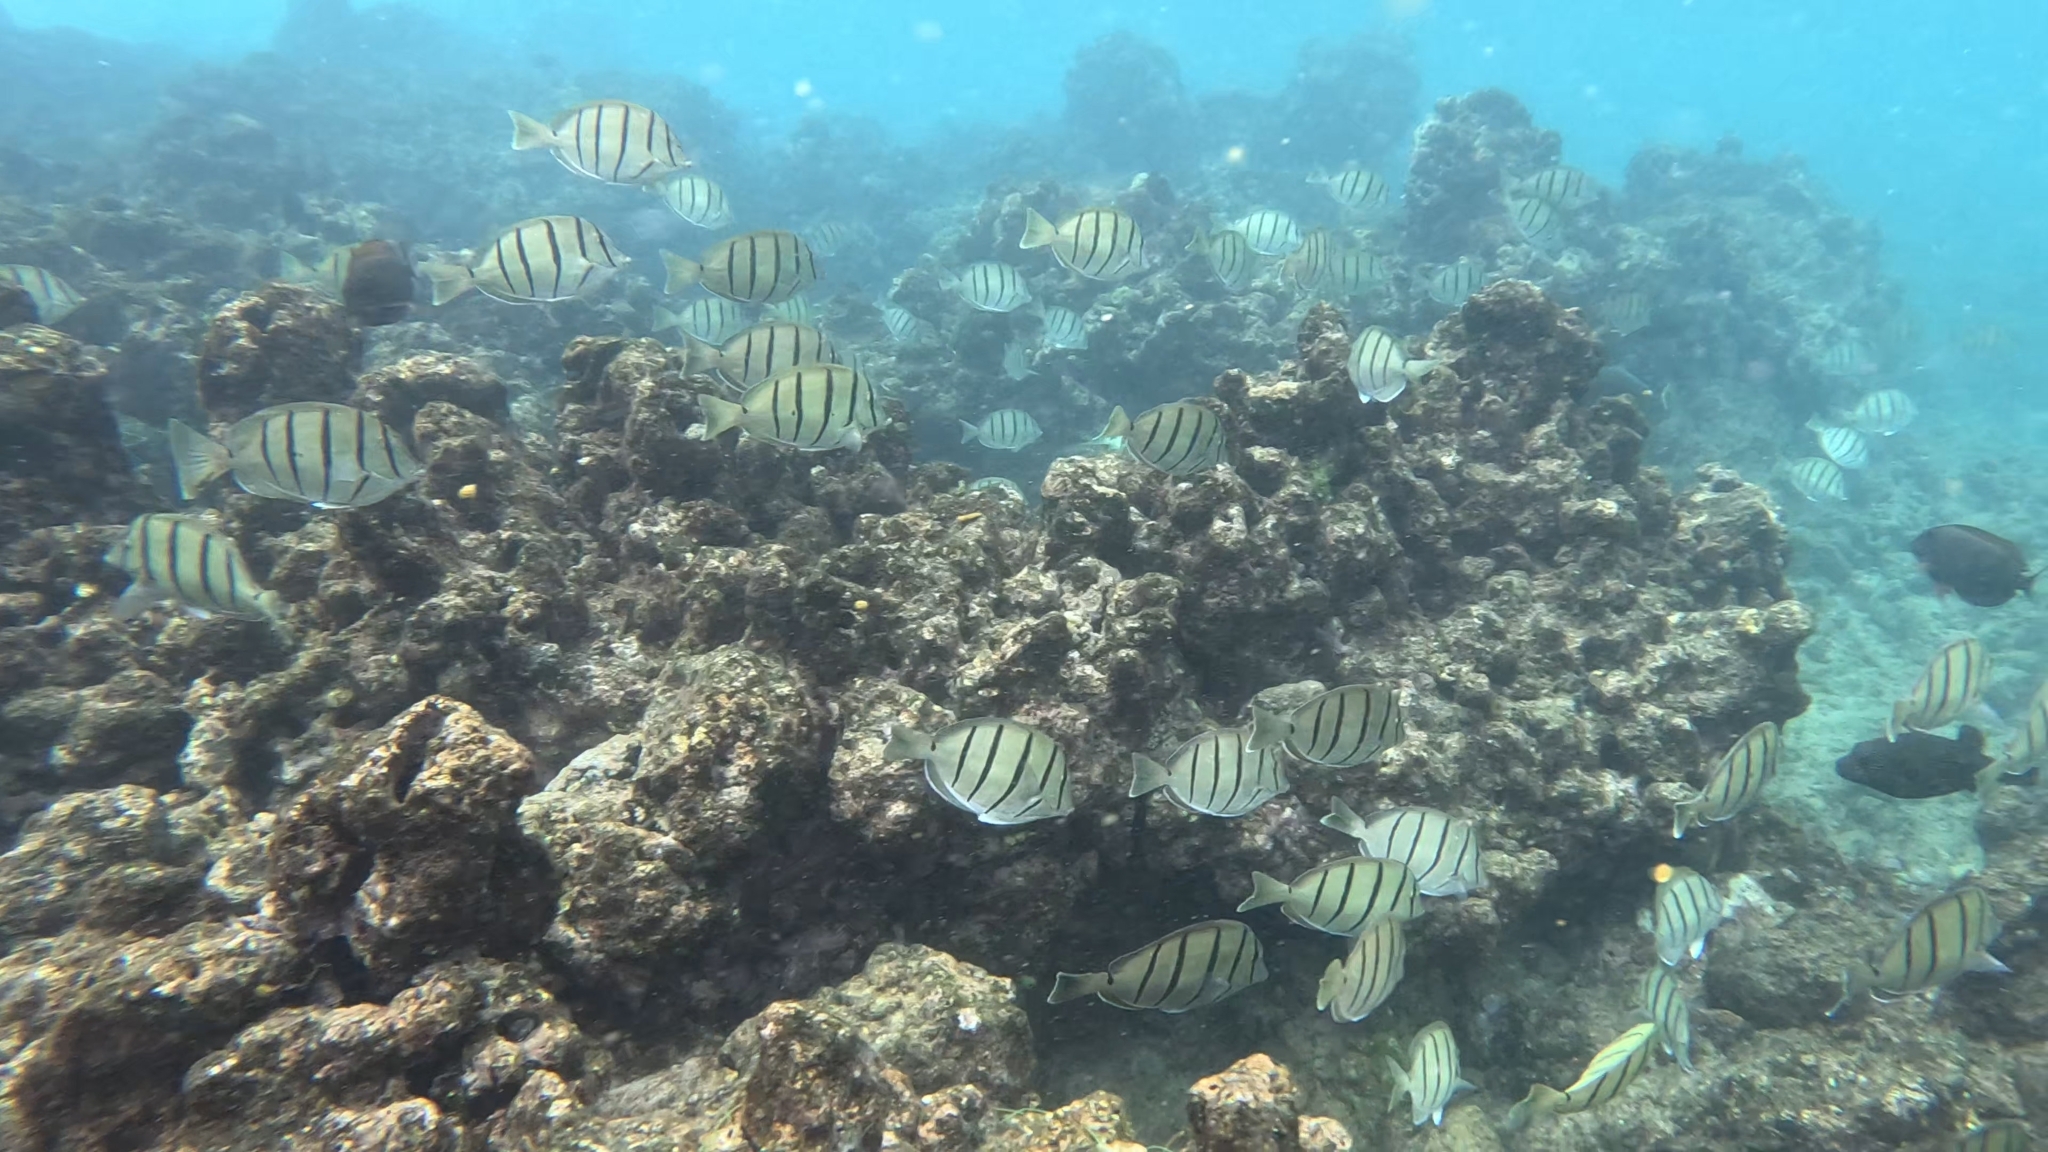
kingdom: Animalia
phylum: Chordata
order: Perciformes
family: Acanthuridae
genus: Acanthurus
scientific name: Acanthurus triostegus
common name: Convict surgeonfish
